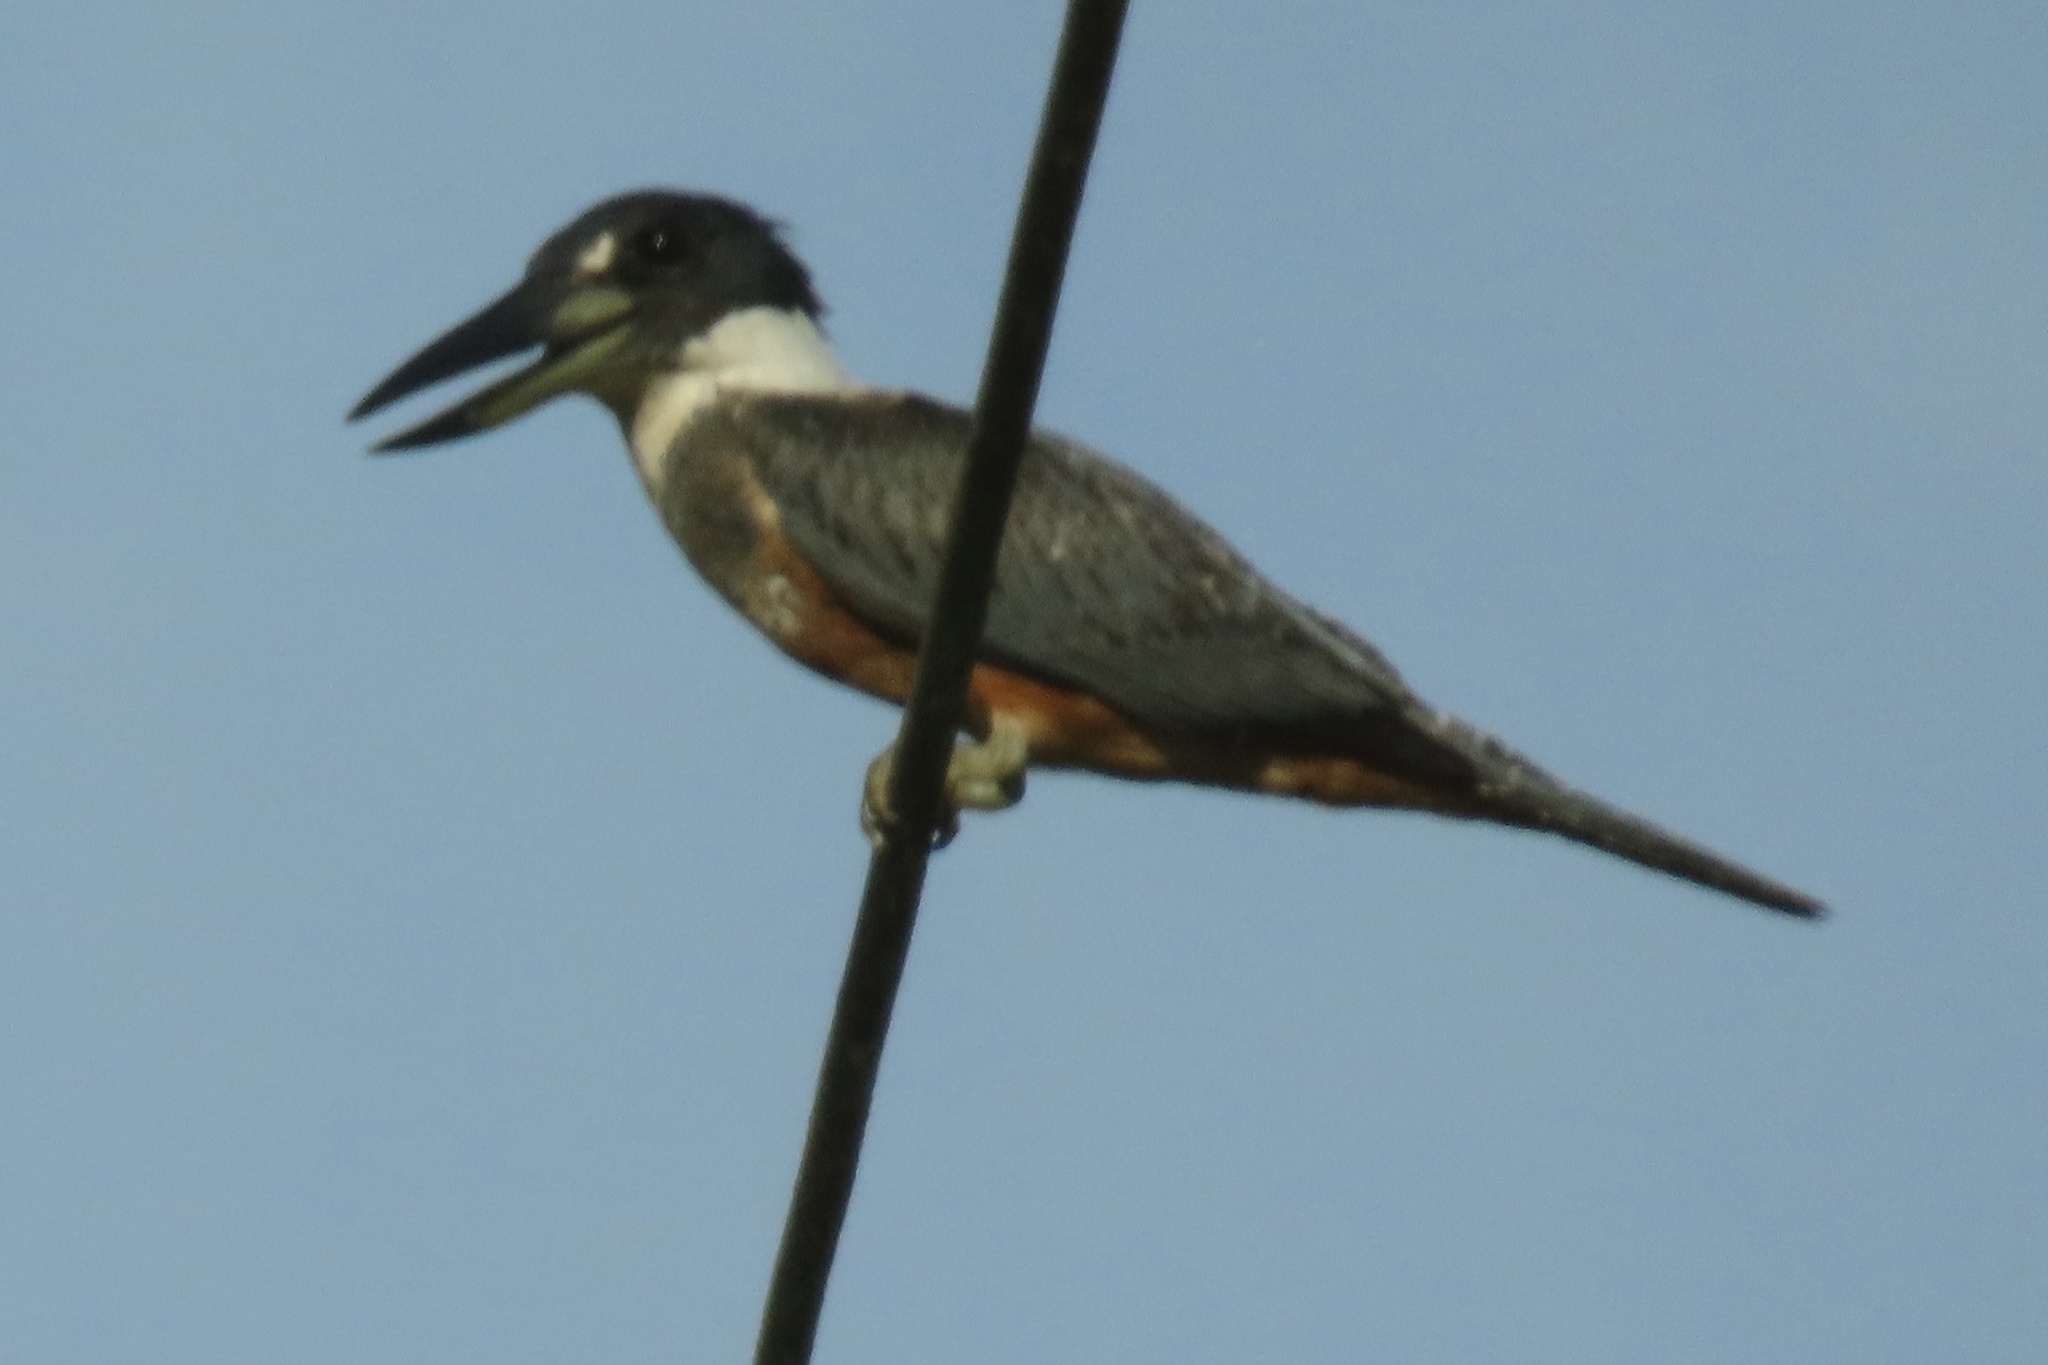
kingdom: Animalia
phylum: Chordata
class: Aves
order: Coraciiformes
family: Alcedinidae
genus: Megaceryle
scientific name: Megaceryle torquata
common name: Ringed kingfisher
